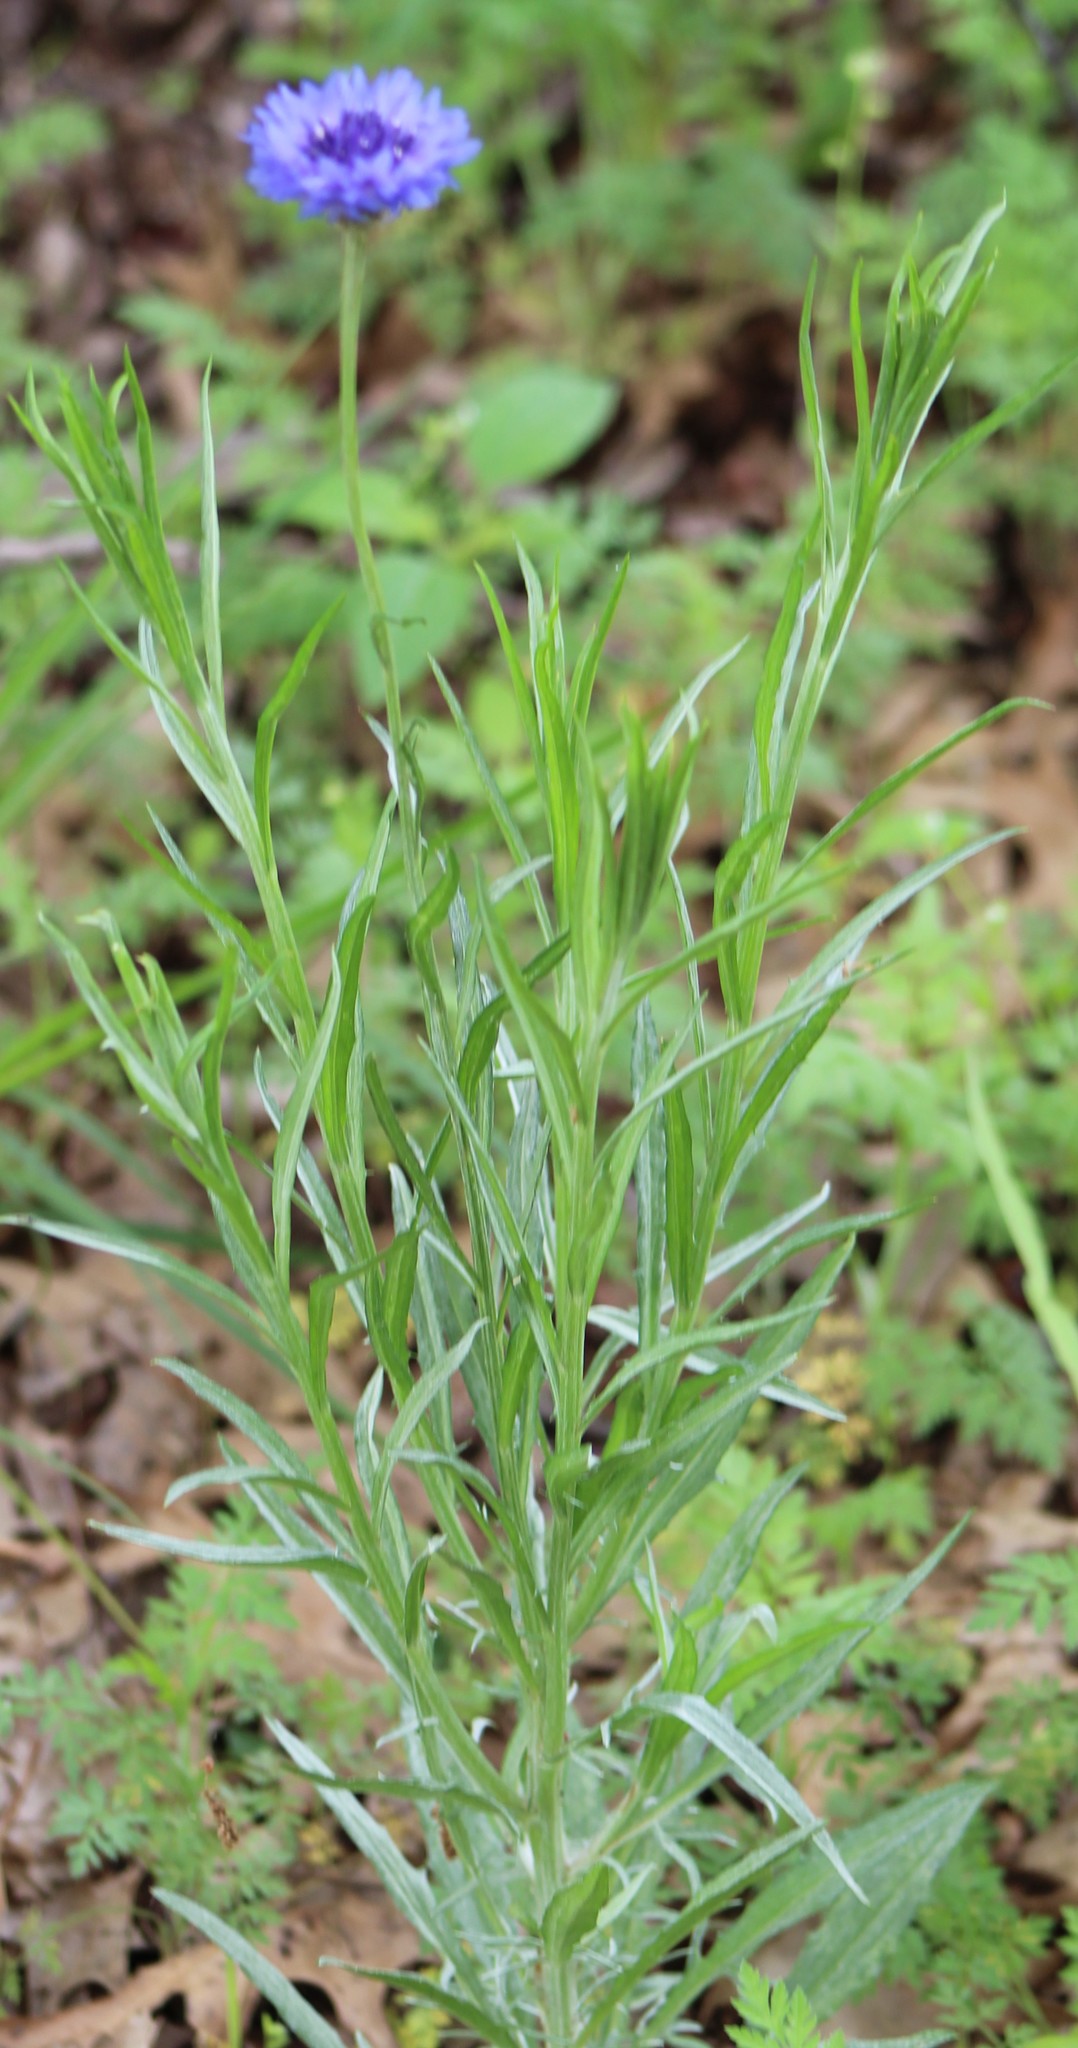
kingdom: Plantae
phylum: Tracheophyta
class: Magnoliopsida
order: Asterales
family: Asteraceae
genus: Centaurea
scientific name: Centaurea cyanus
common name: Cornflower
